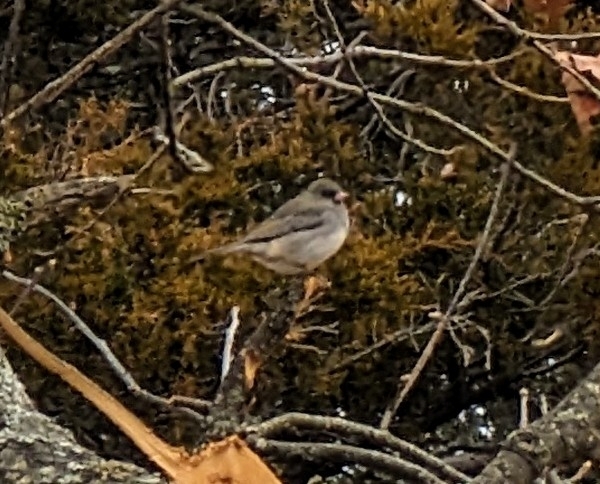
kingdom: Animalia
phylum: Chordata
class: Aves
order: Passeriformes
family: Passerellidae
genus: Junco
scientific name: Junco hyemalis
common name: Dark-eyed junco
